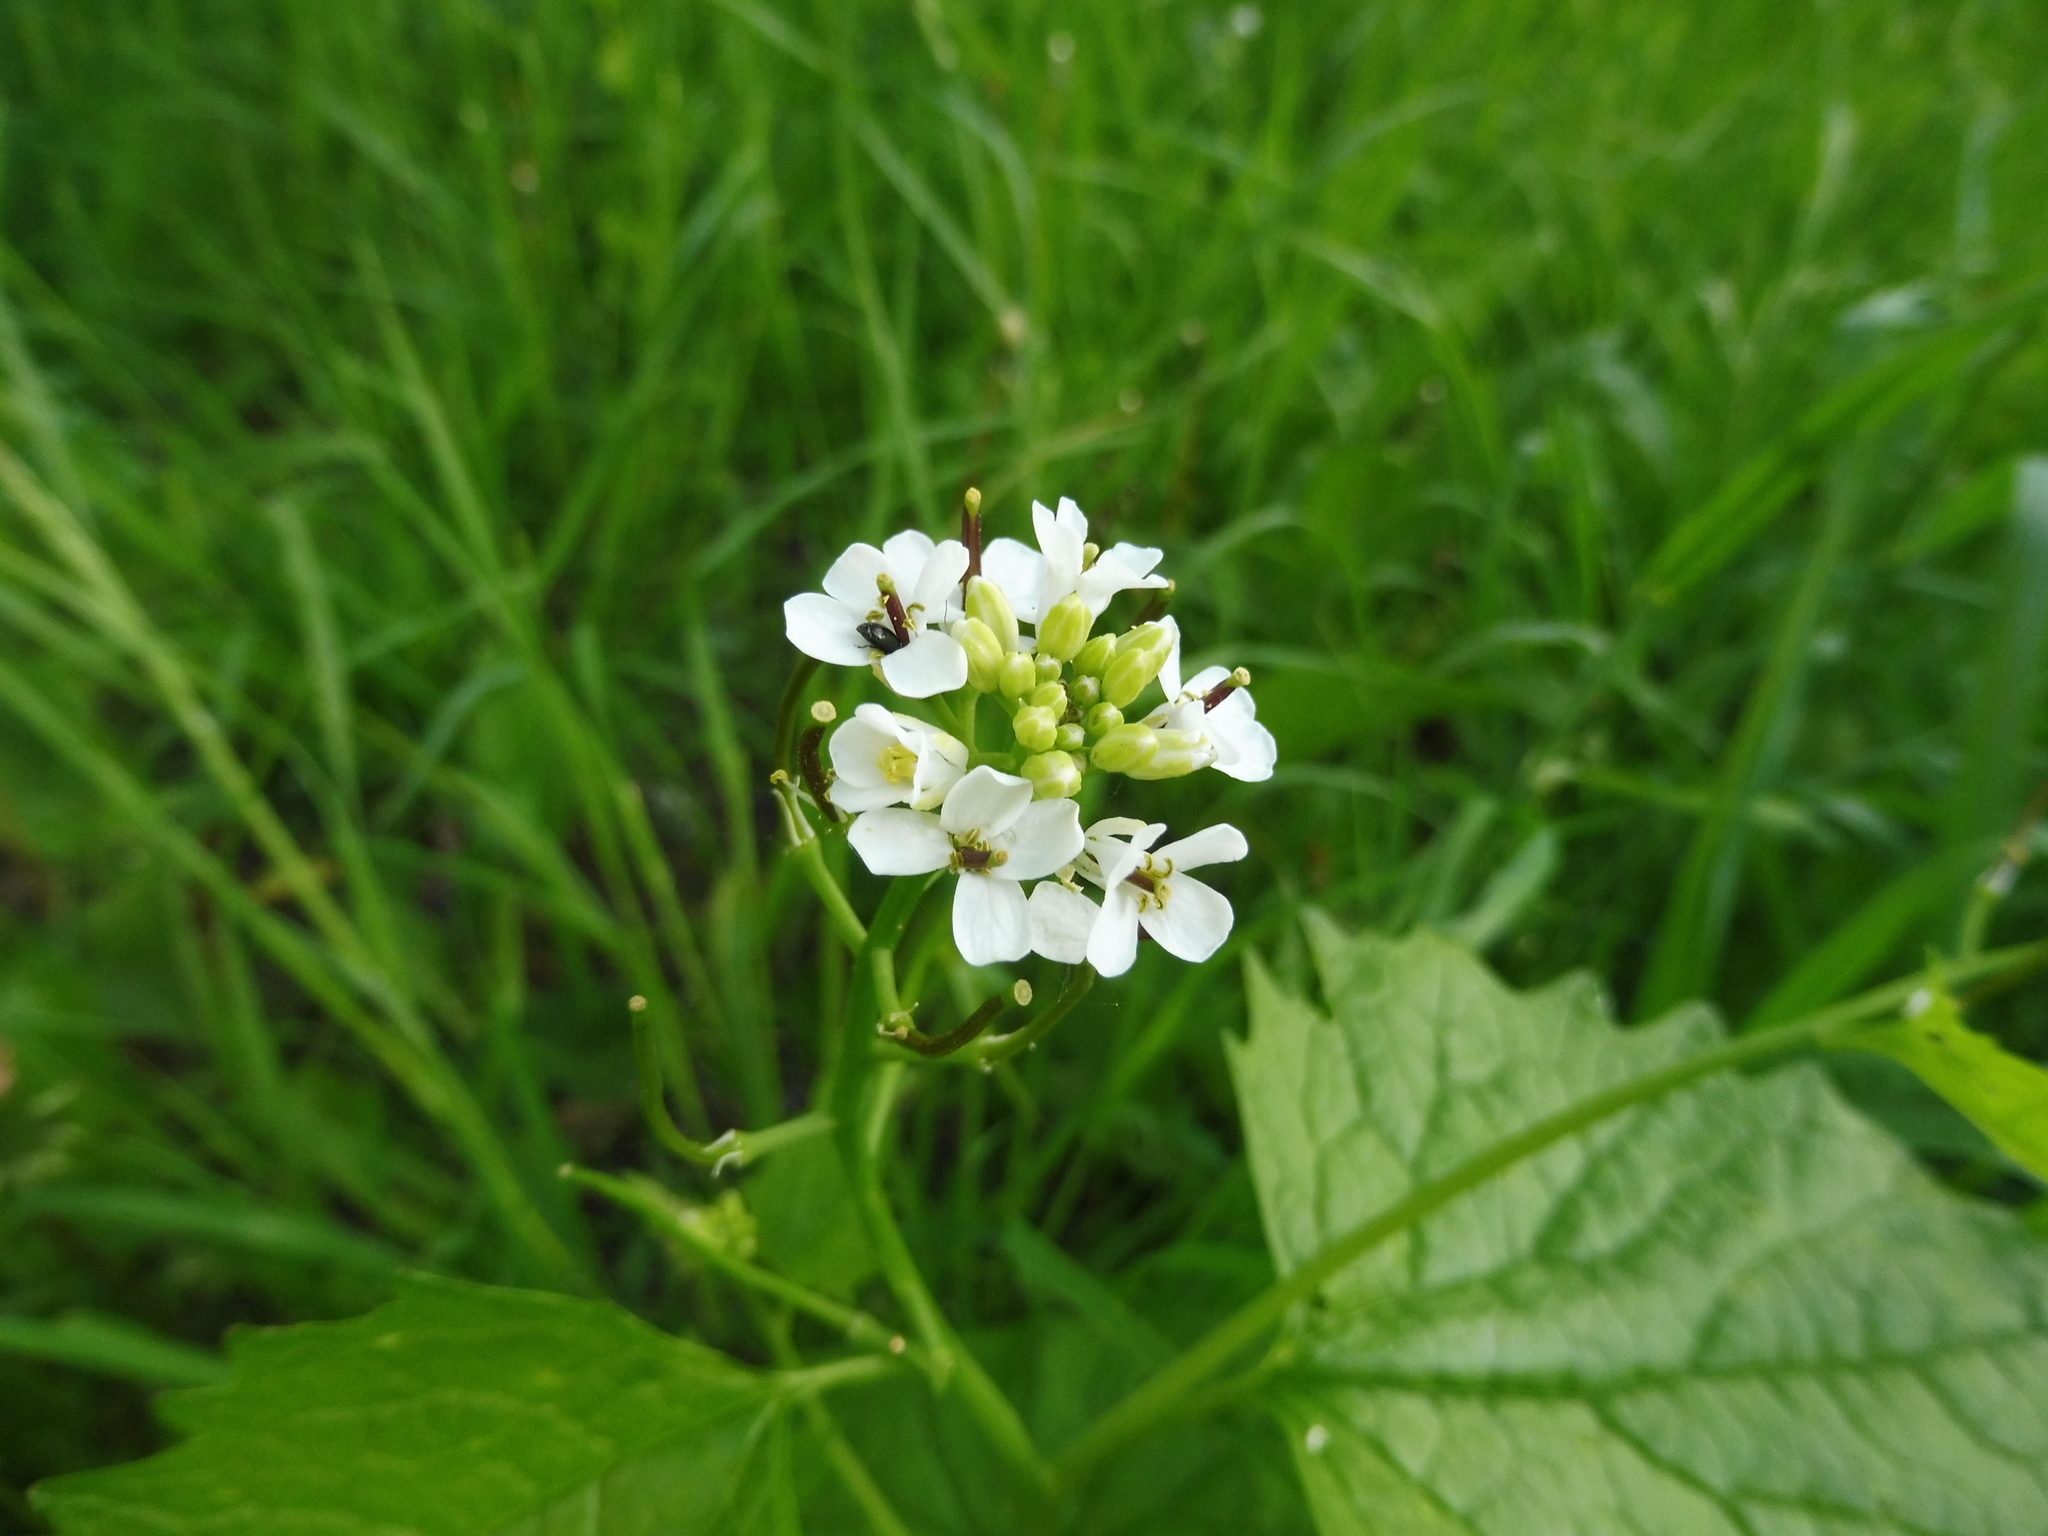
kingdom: Plantae
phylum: Tracheophyta
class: Magnoliopsida
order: Brassicales
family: Brassicaceae
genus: Alliaria
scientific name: Alliaria petiolata
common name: Garlic mustard
